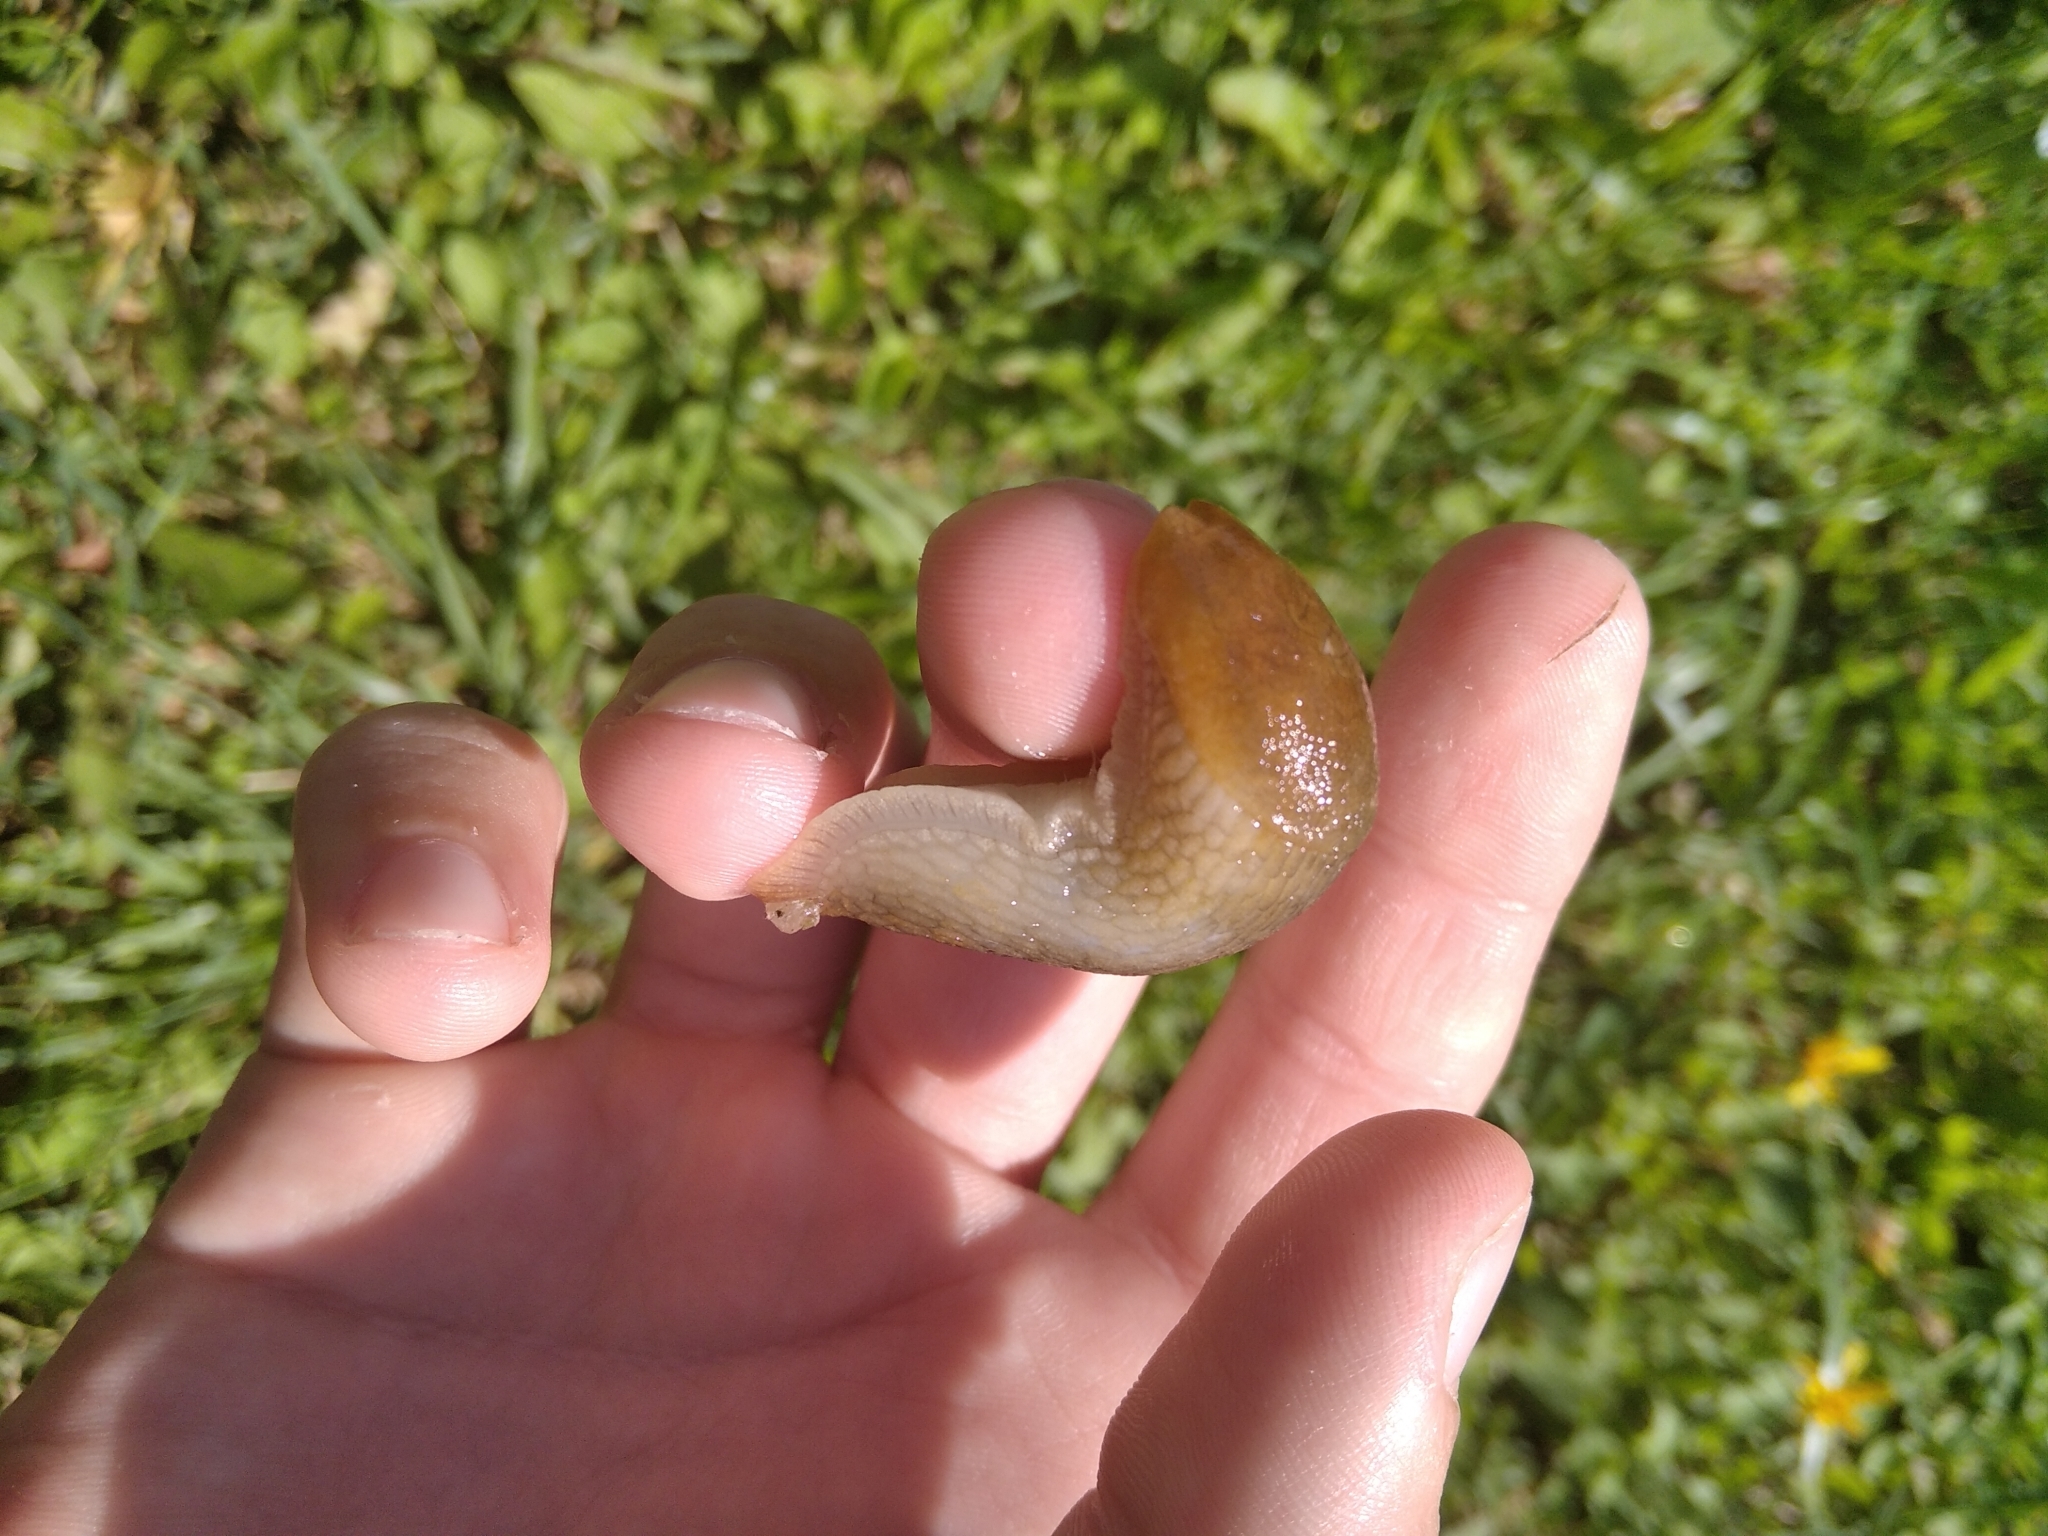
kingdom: Animalia
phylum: Mollusca
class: Gastropoda
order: Stylommatophora
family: Arionidae
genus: Arion
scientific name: Arion
